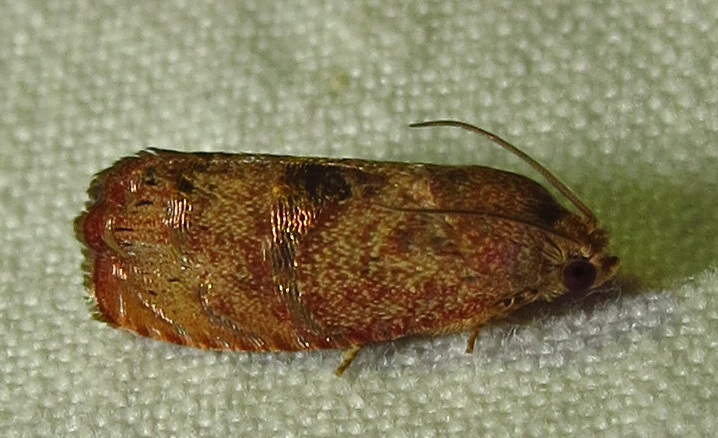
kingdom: Animalia
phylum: Arthropoda
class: Insecta
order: Lepidoptera
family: Tortricidae
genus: Cydia
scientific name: Cydia latiferreana
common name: Filbertworm moth
